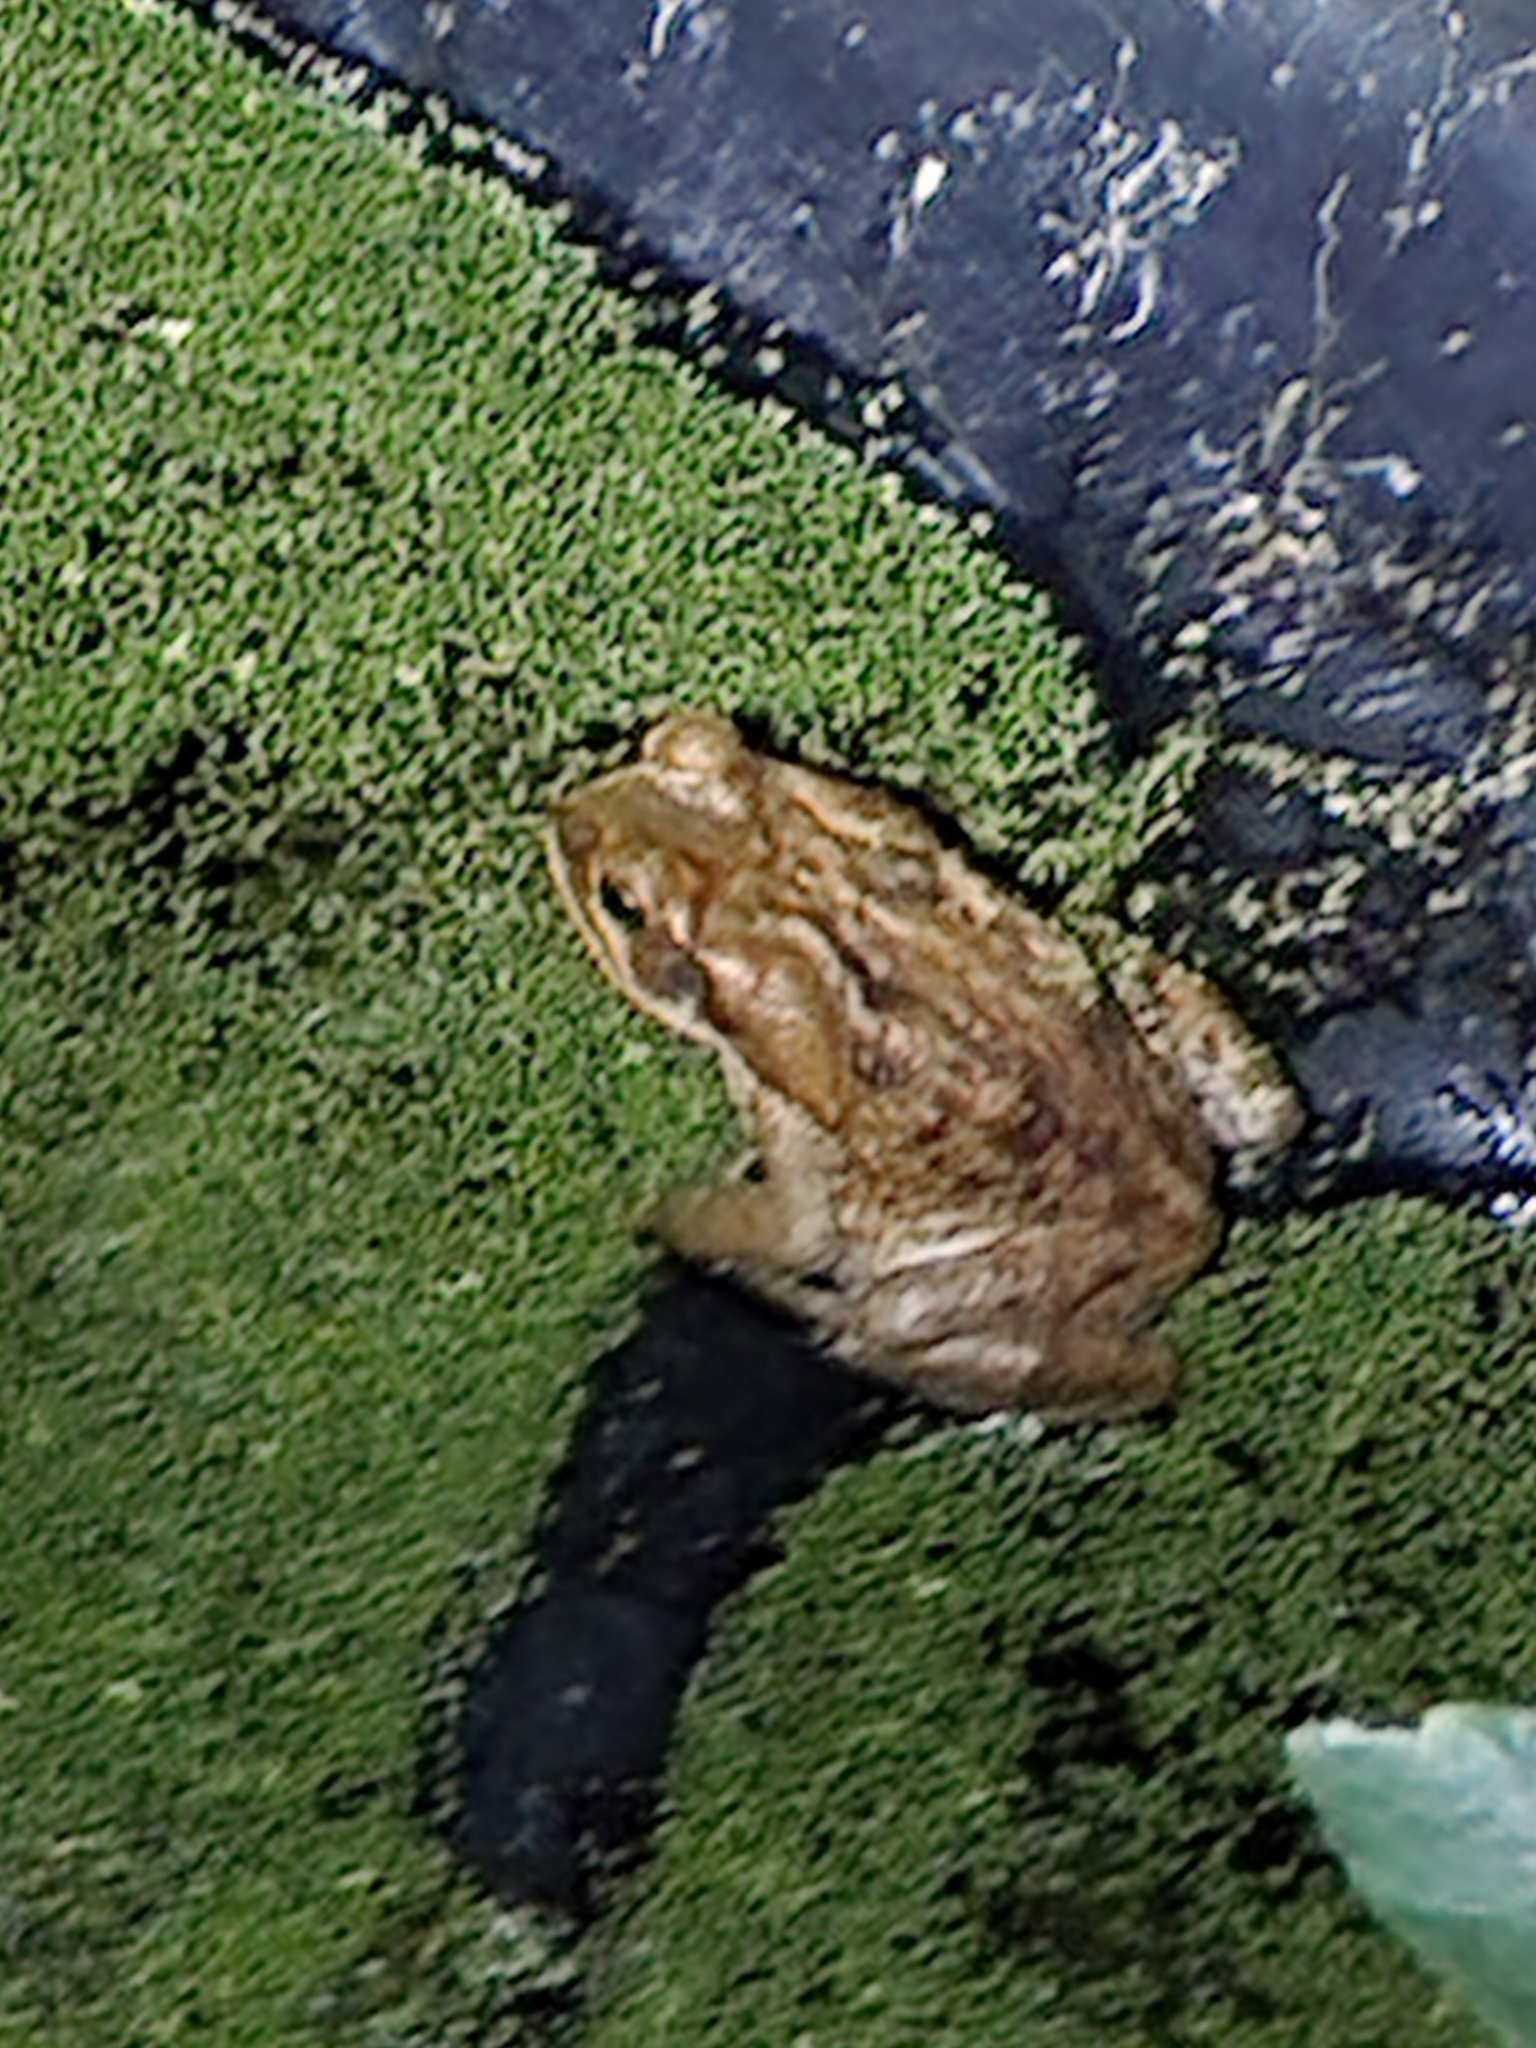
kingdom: Animalia
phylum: Chordata
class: Amphibia
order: Anura
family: Bufonidae
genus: Rhinella
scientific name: Rhinella marina
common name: Cane toad
